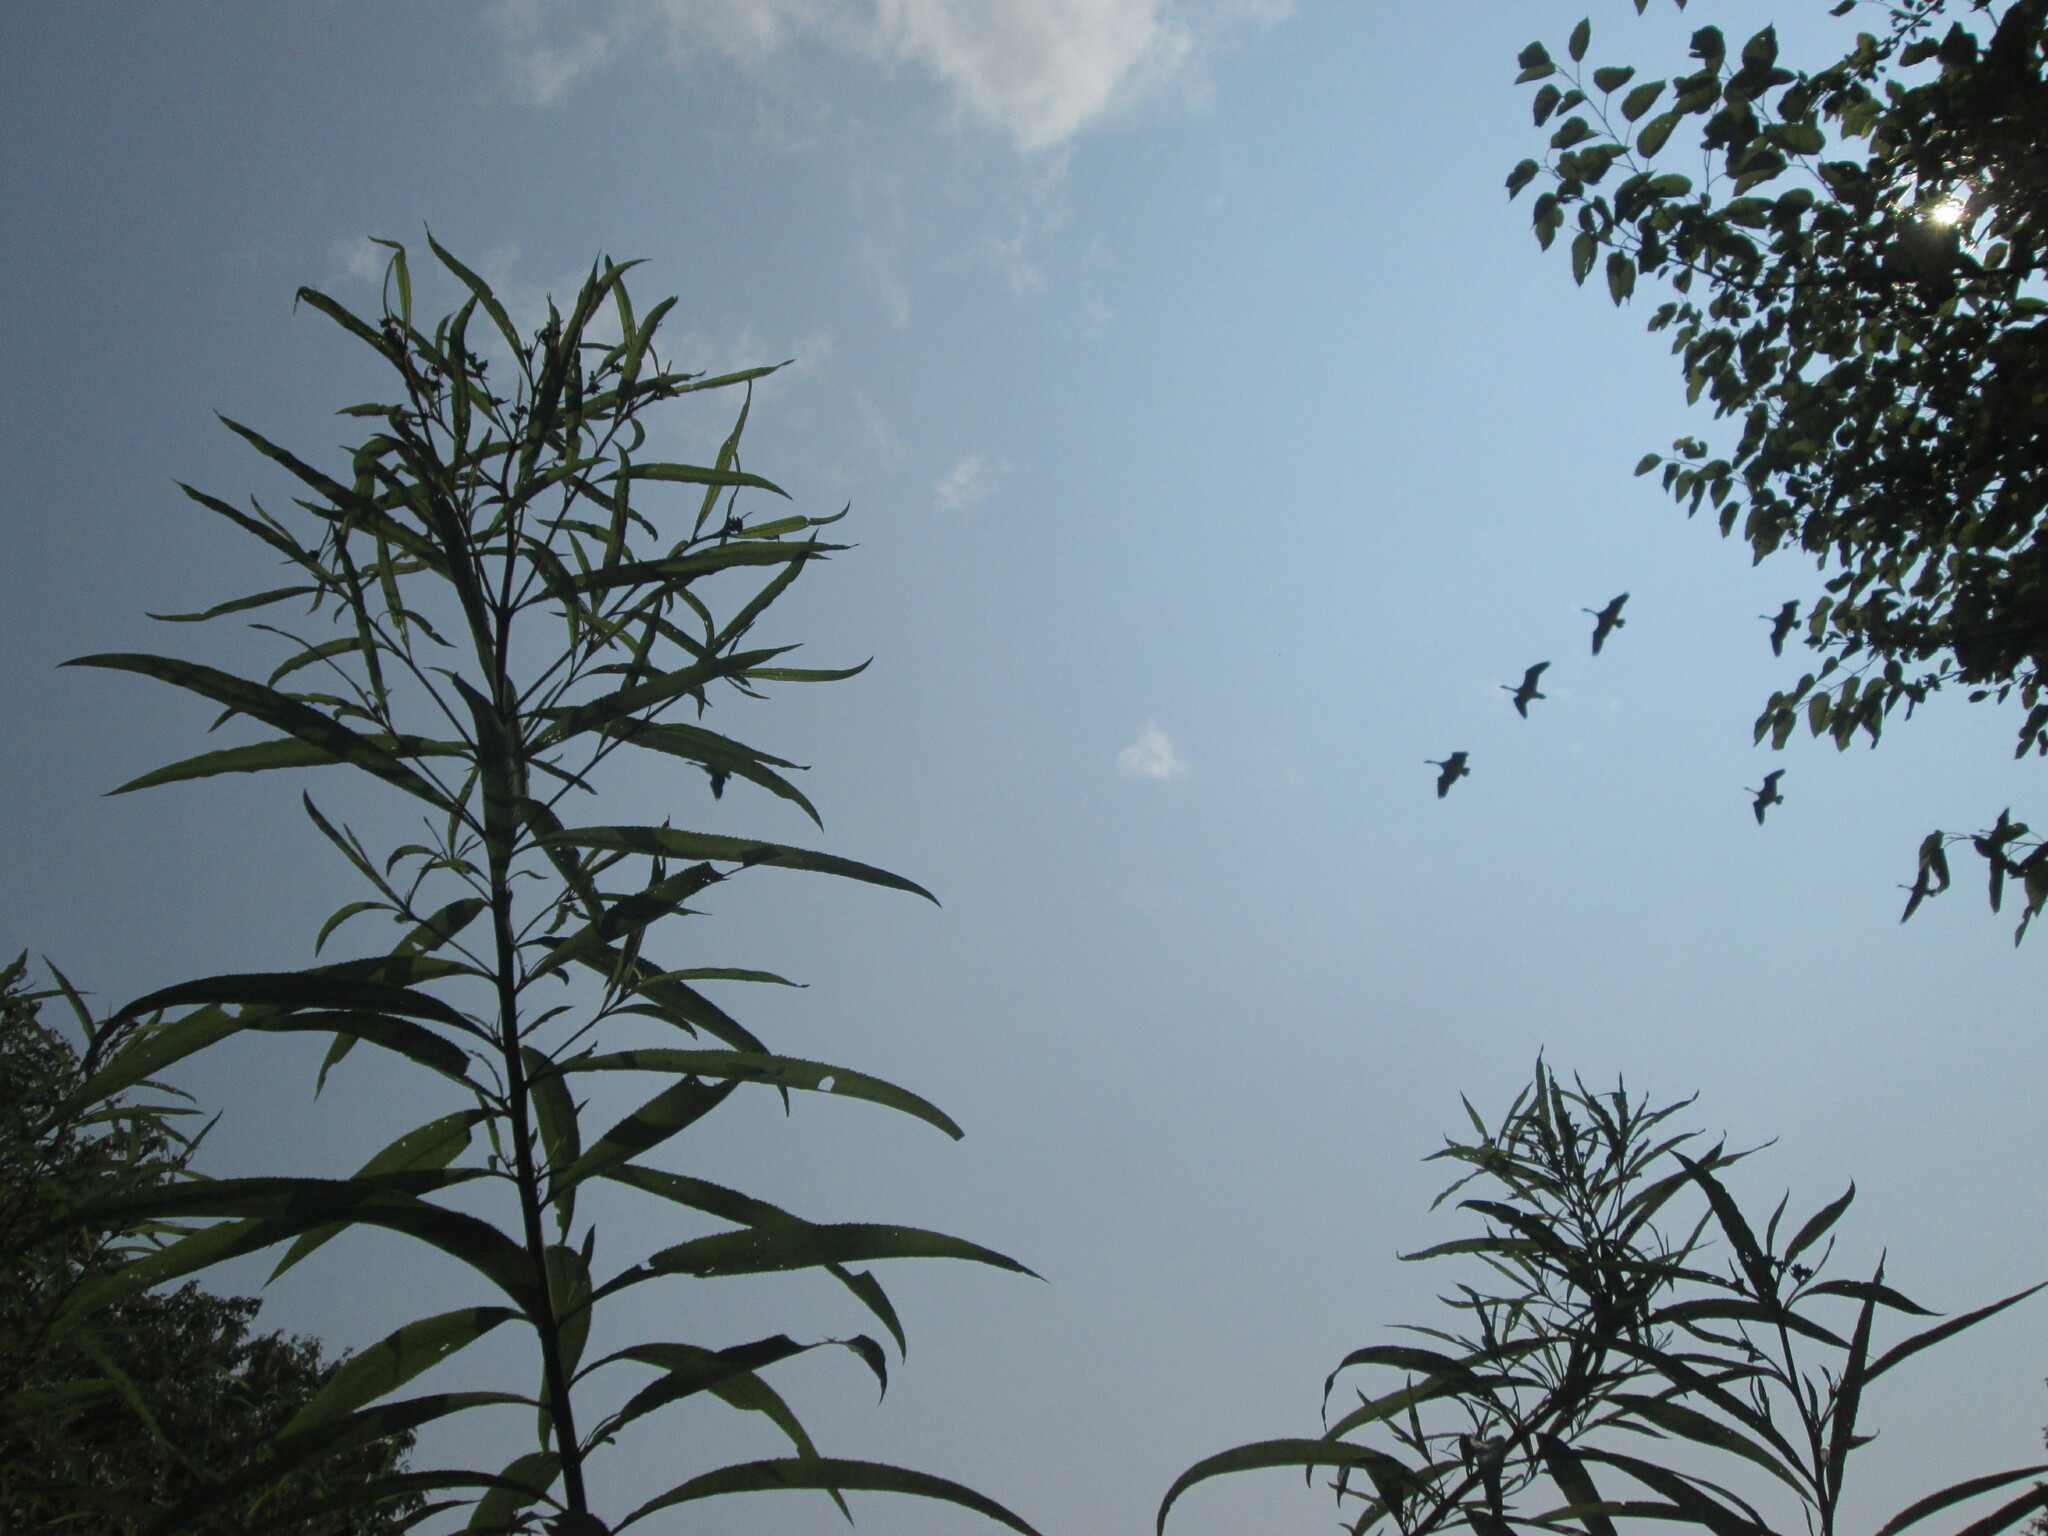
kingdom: Animalia
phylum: Chordata
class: Aves
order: Anseriformes
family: Anatidae
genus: Branta
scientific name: Branta canadensis
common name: Canada goose
